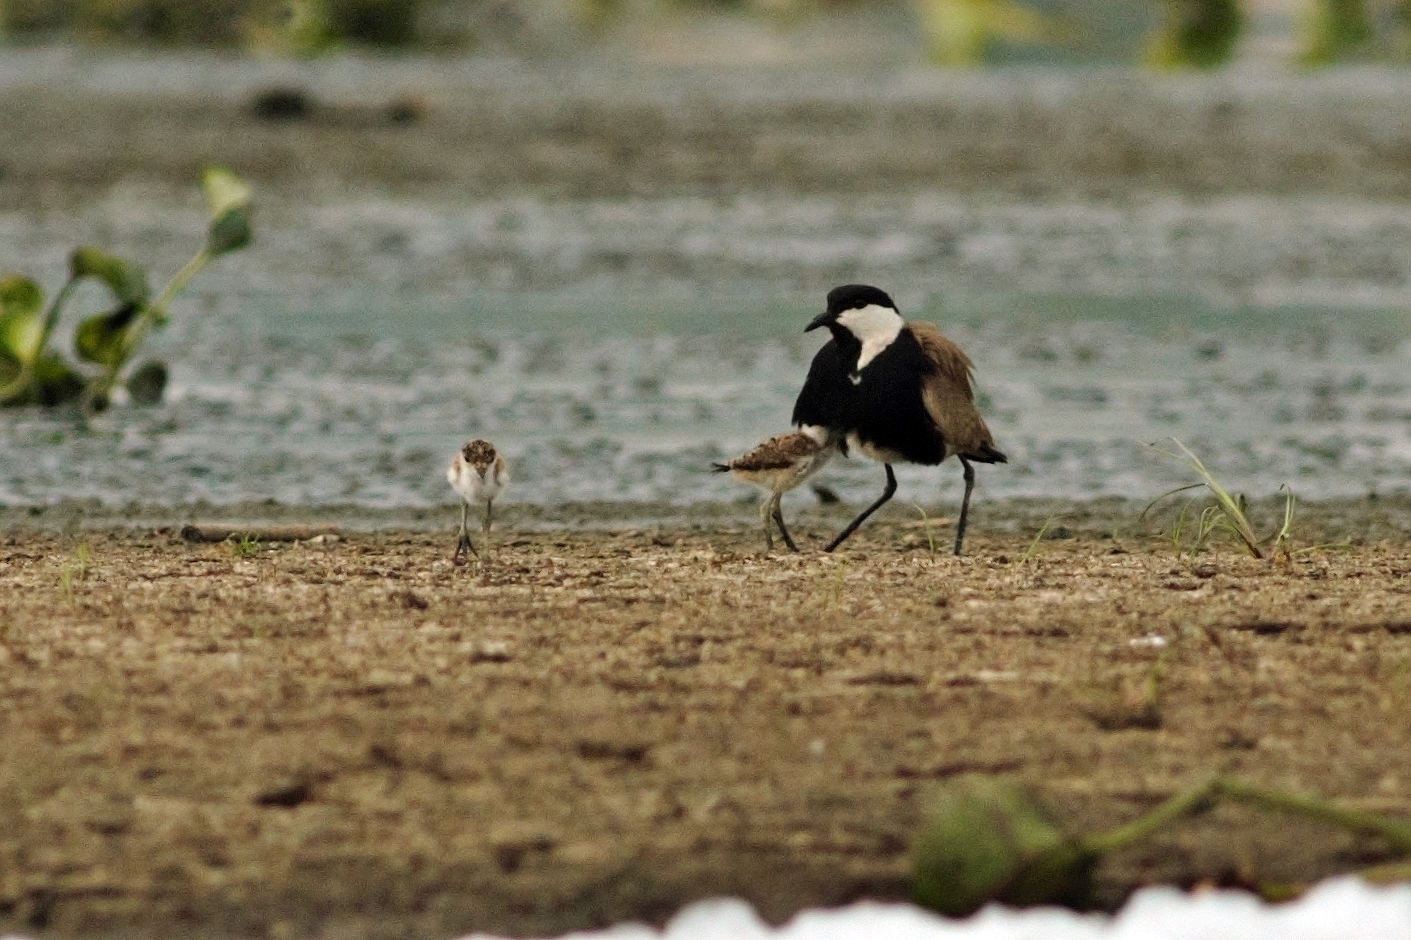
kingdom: Animalia
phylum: Chordata
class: Aves
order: Charadriiformes
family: Charadriidae
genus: Vanellus
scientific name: Vanellus spinosus
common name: Spur-winged lapwing
